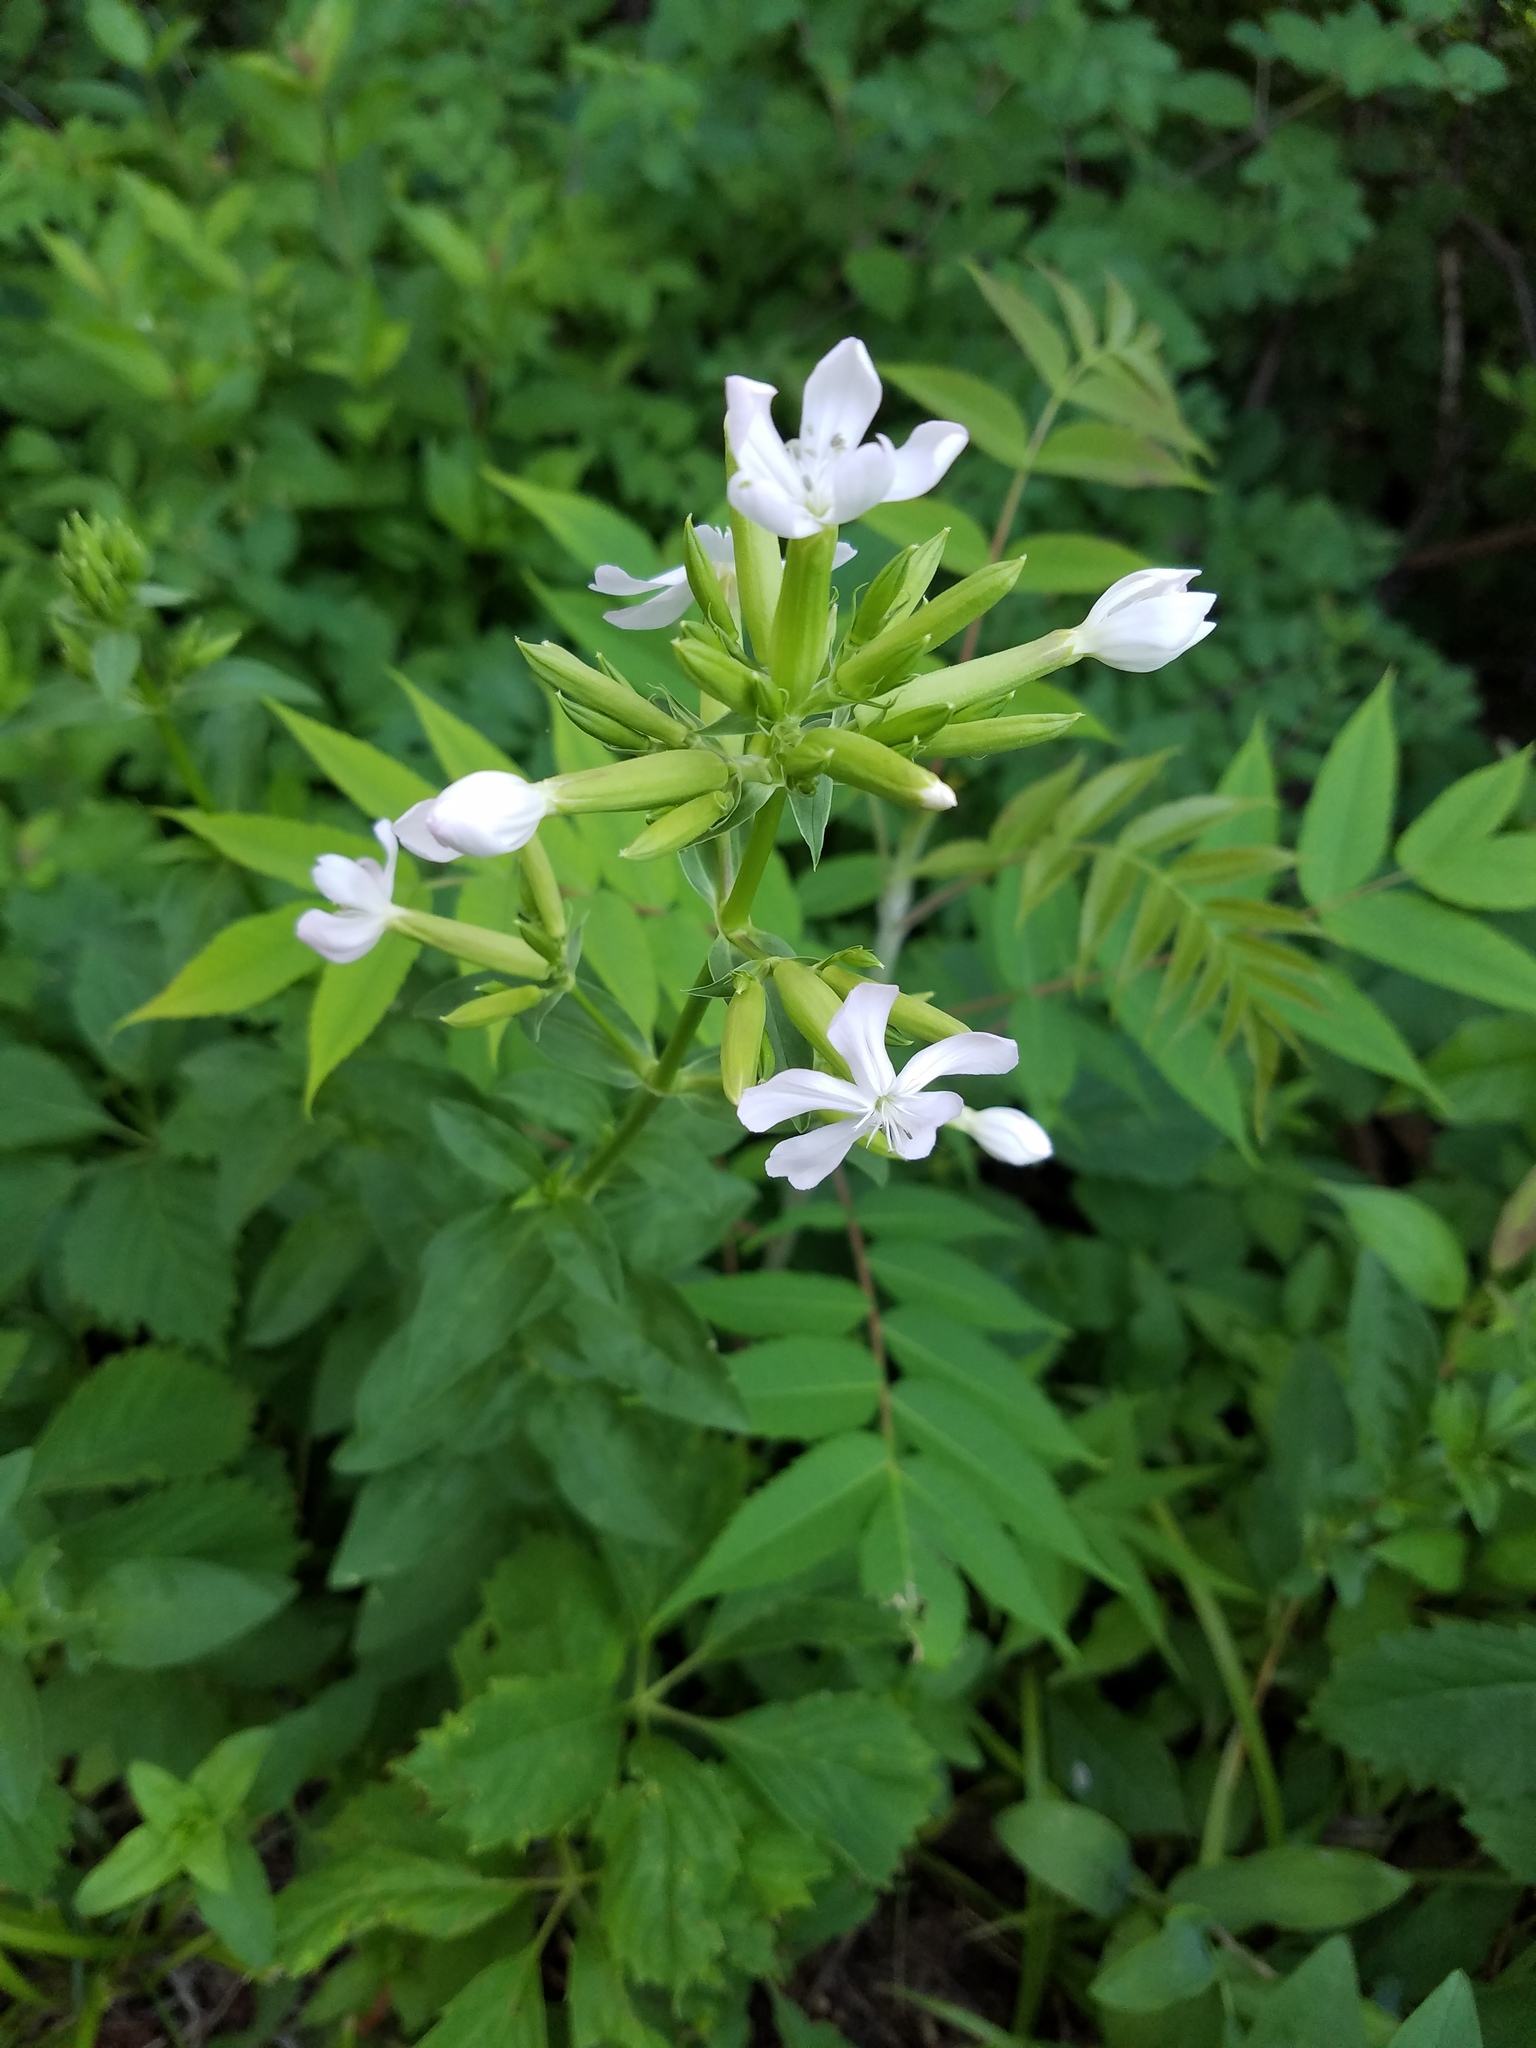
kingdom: Plantae
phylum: Tracheophyta
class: Magnoliopsida
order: Caryophyllales
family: Caryophyllaceae
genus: Saponaria
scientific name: Saponaria officinalis
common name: Soapwort
